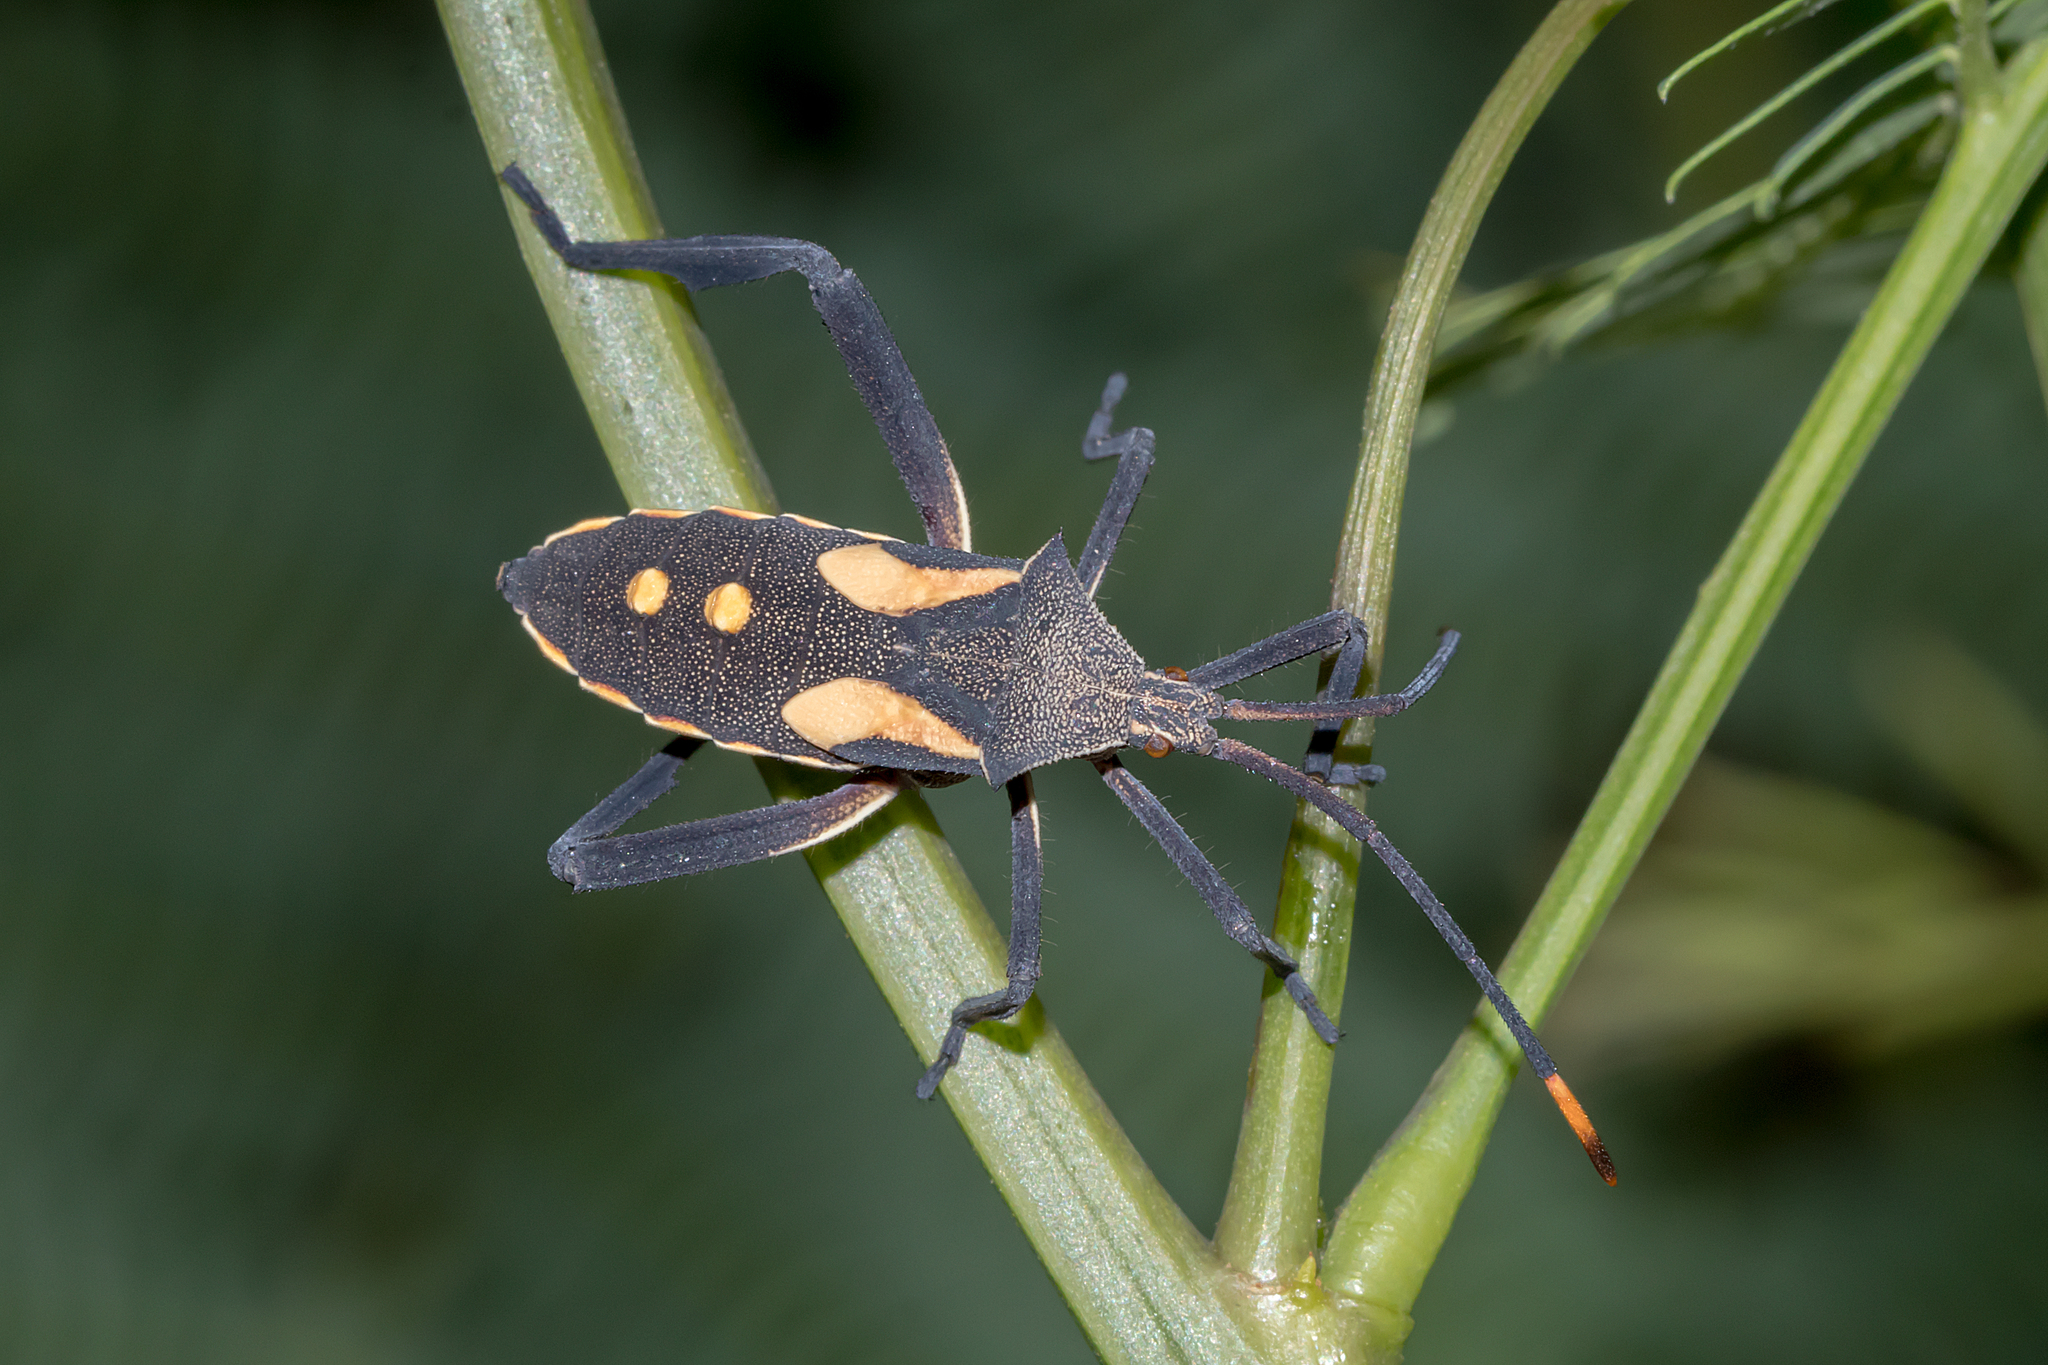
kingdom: Animalia
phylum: Arthropoda
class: Insecta
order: Hemiptera
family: Coreidae
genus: Mictis
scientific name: Mictis profana
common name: Crusader bug
